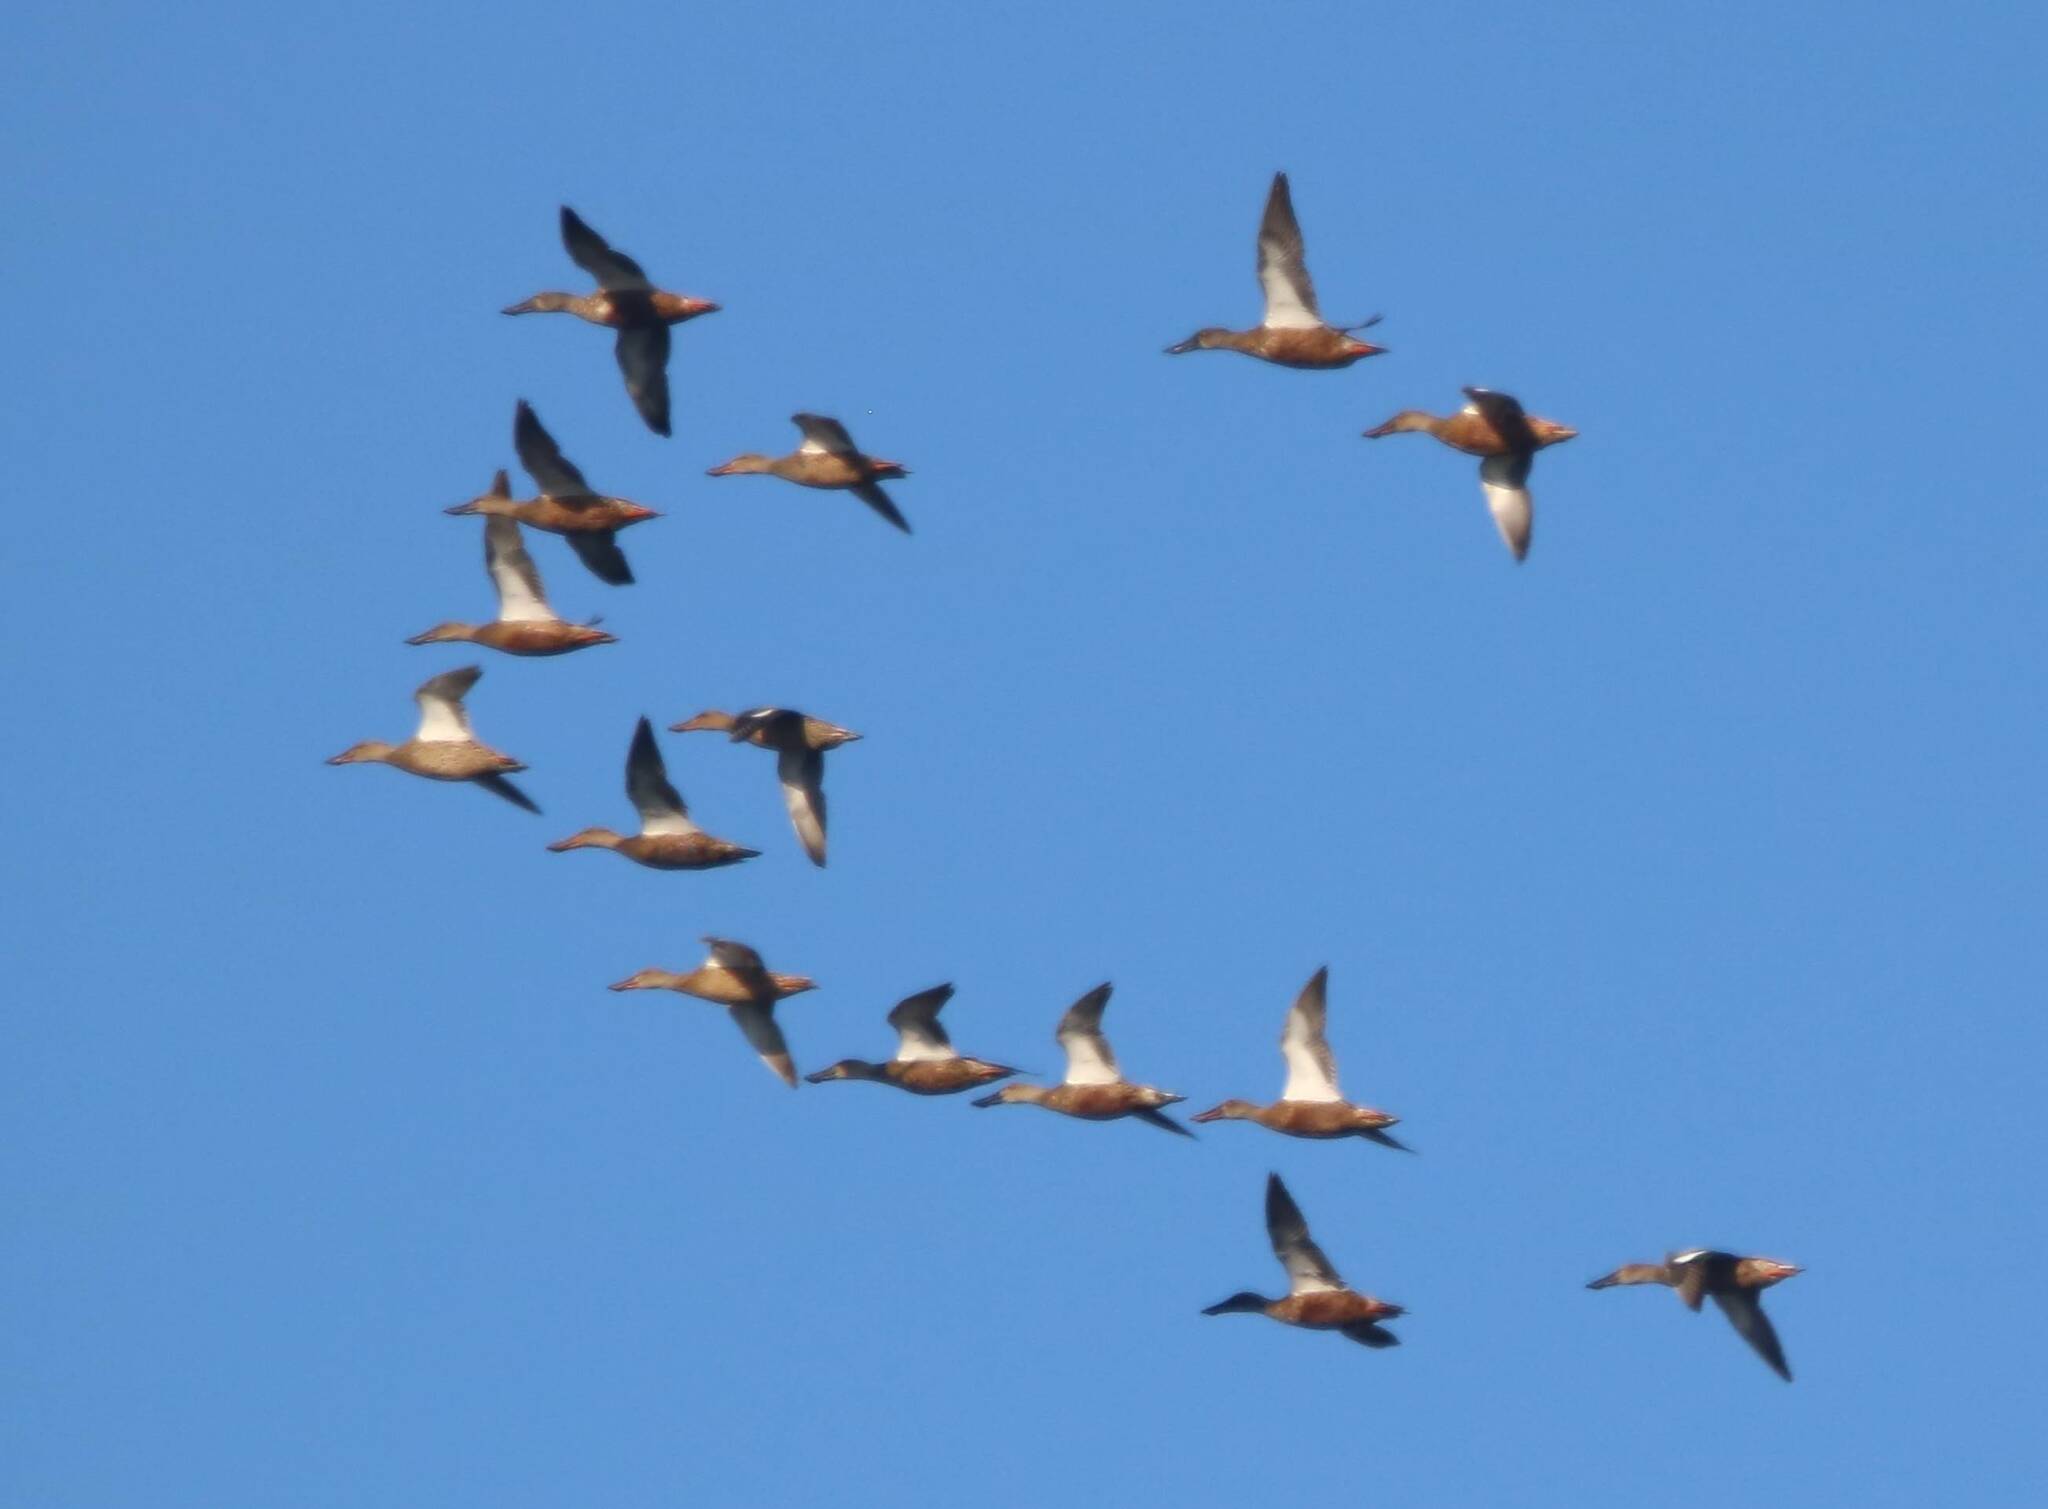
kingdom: Animalia
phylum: Chordata
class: Aves
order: Anseriformes
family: Anatidae
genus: Spatula
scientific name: Spatula clypeata
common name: Northern shoveler
